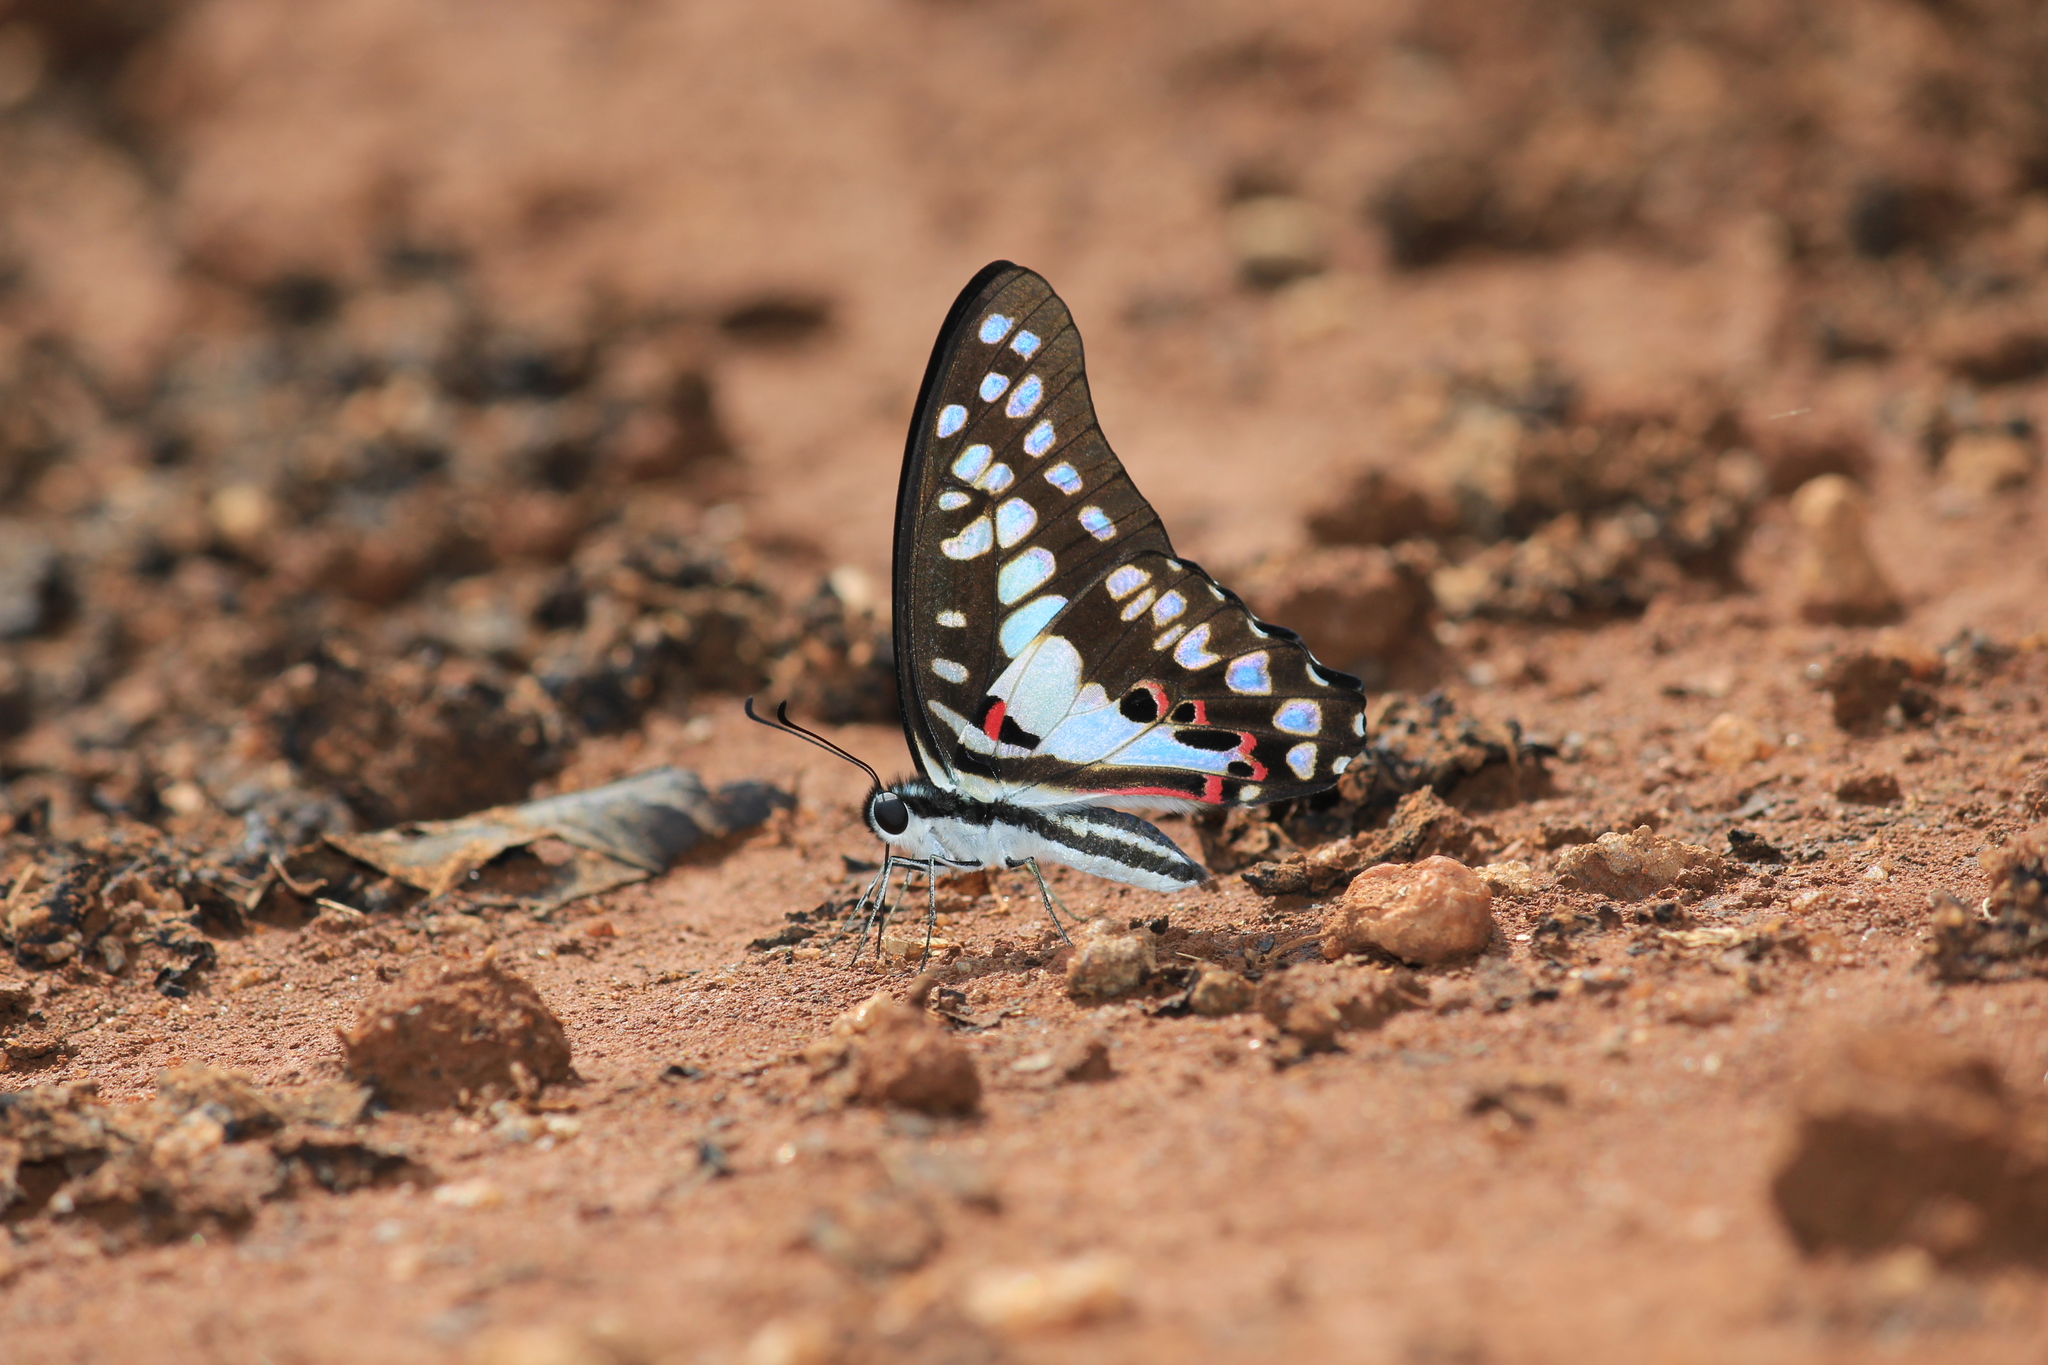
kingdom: Animalia
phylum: Arthropoda
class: Insecta
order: Lepidoptera
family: Papilionidae
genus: Graphium
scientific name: Graphium doson
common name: Common jay
